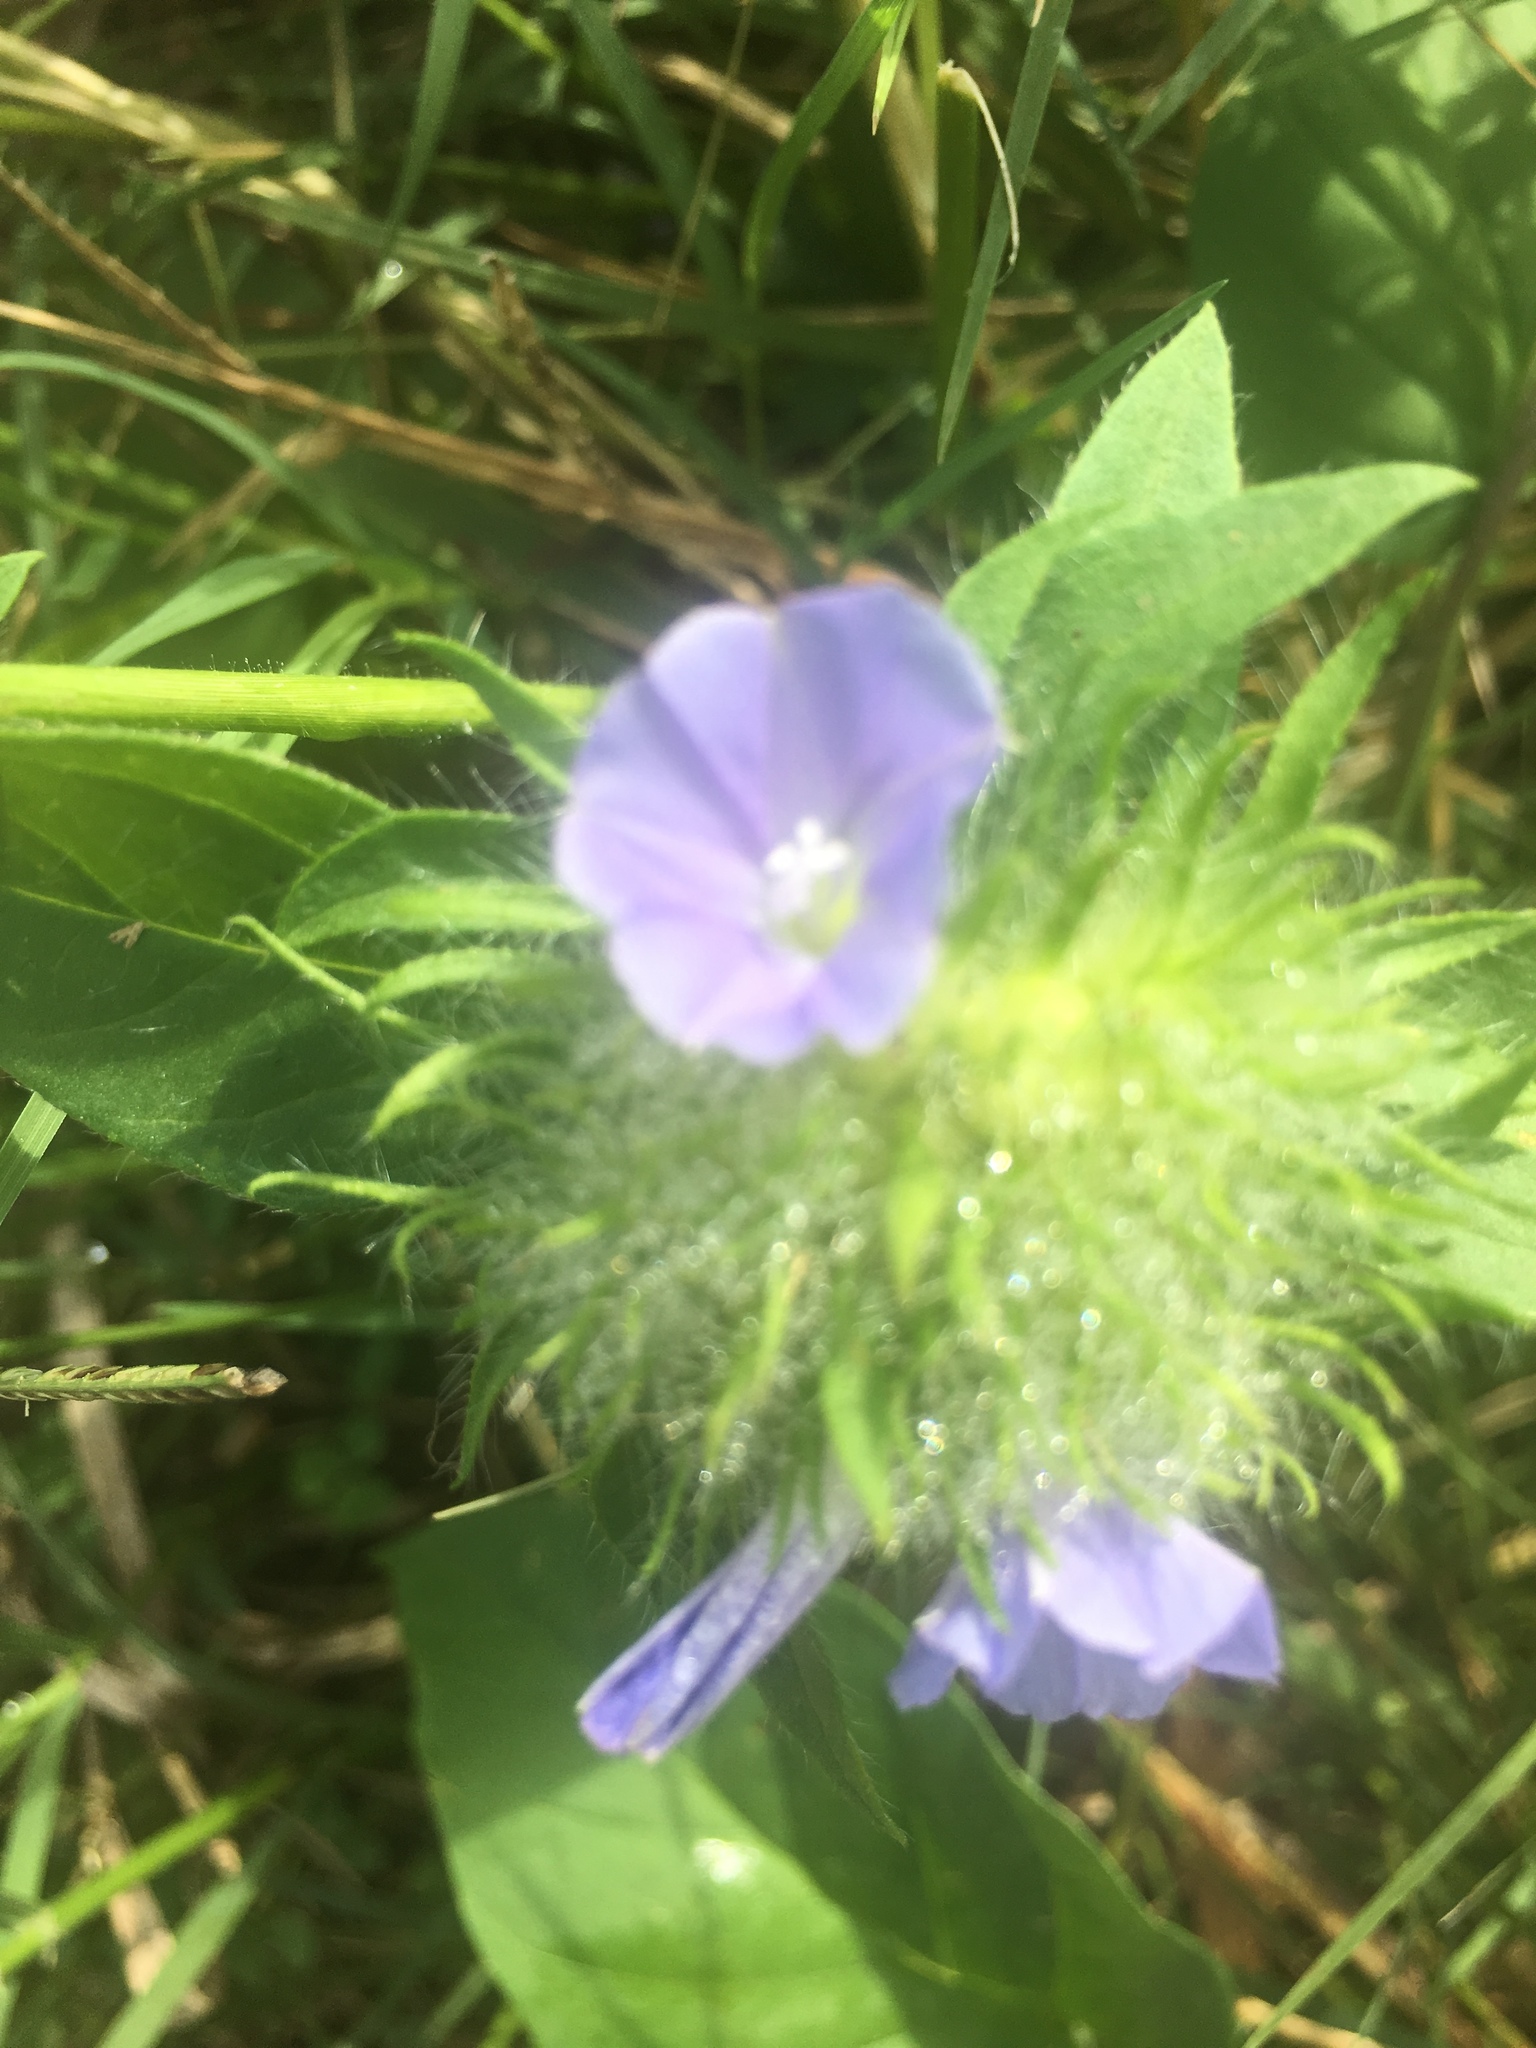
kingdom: Plantae
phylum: Tracheophyta
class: Magnoliopsida
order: Solanales
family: Convolvulaceae
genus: Jacquemontia
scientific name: Jacquemontia tamnifolia
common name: Hairy clustervine
